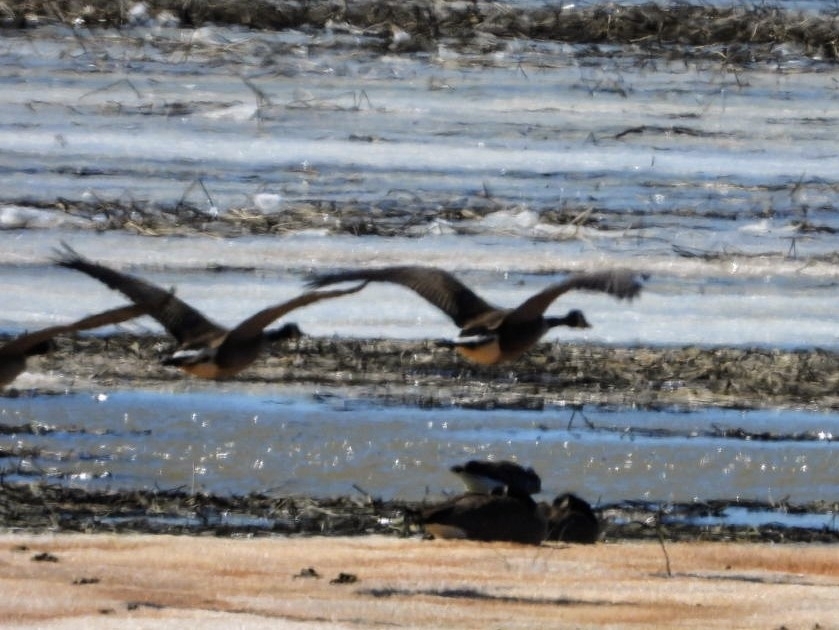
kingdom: Animalia
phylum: Chordata
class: Aves
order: Anseriformes
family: Anatidae
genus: Branta
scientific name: Branta canadensis
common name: Canada goose
